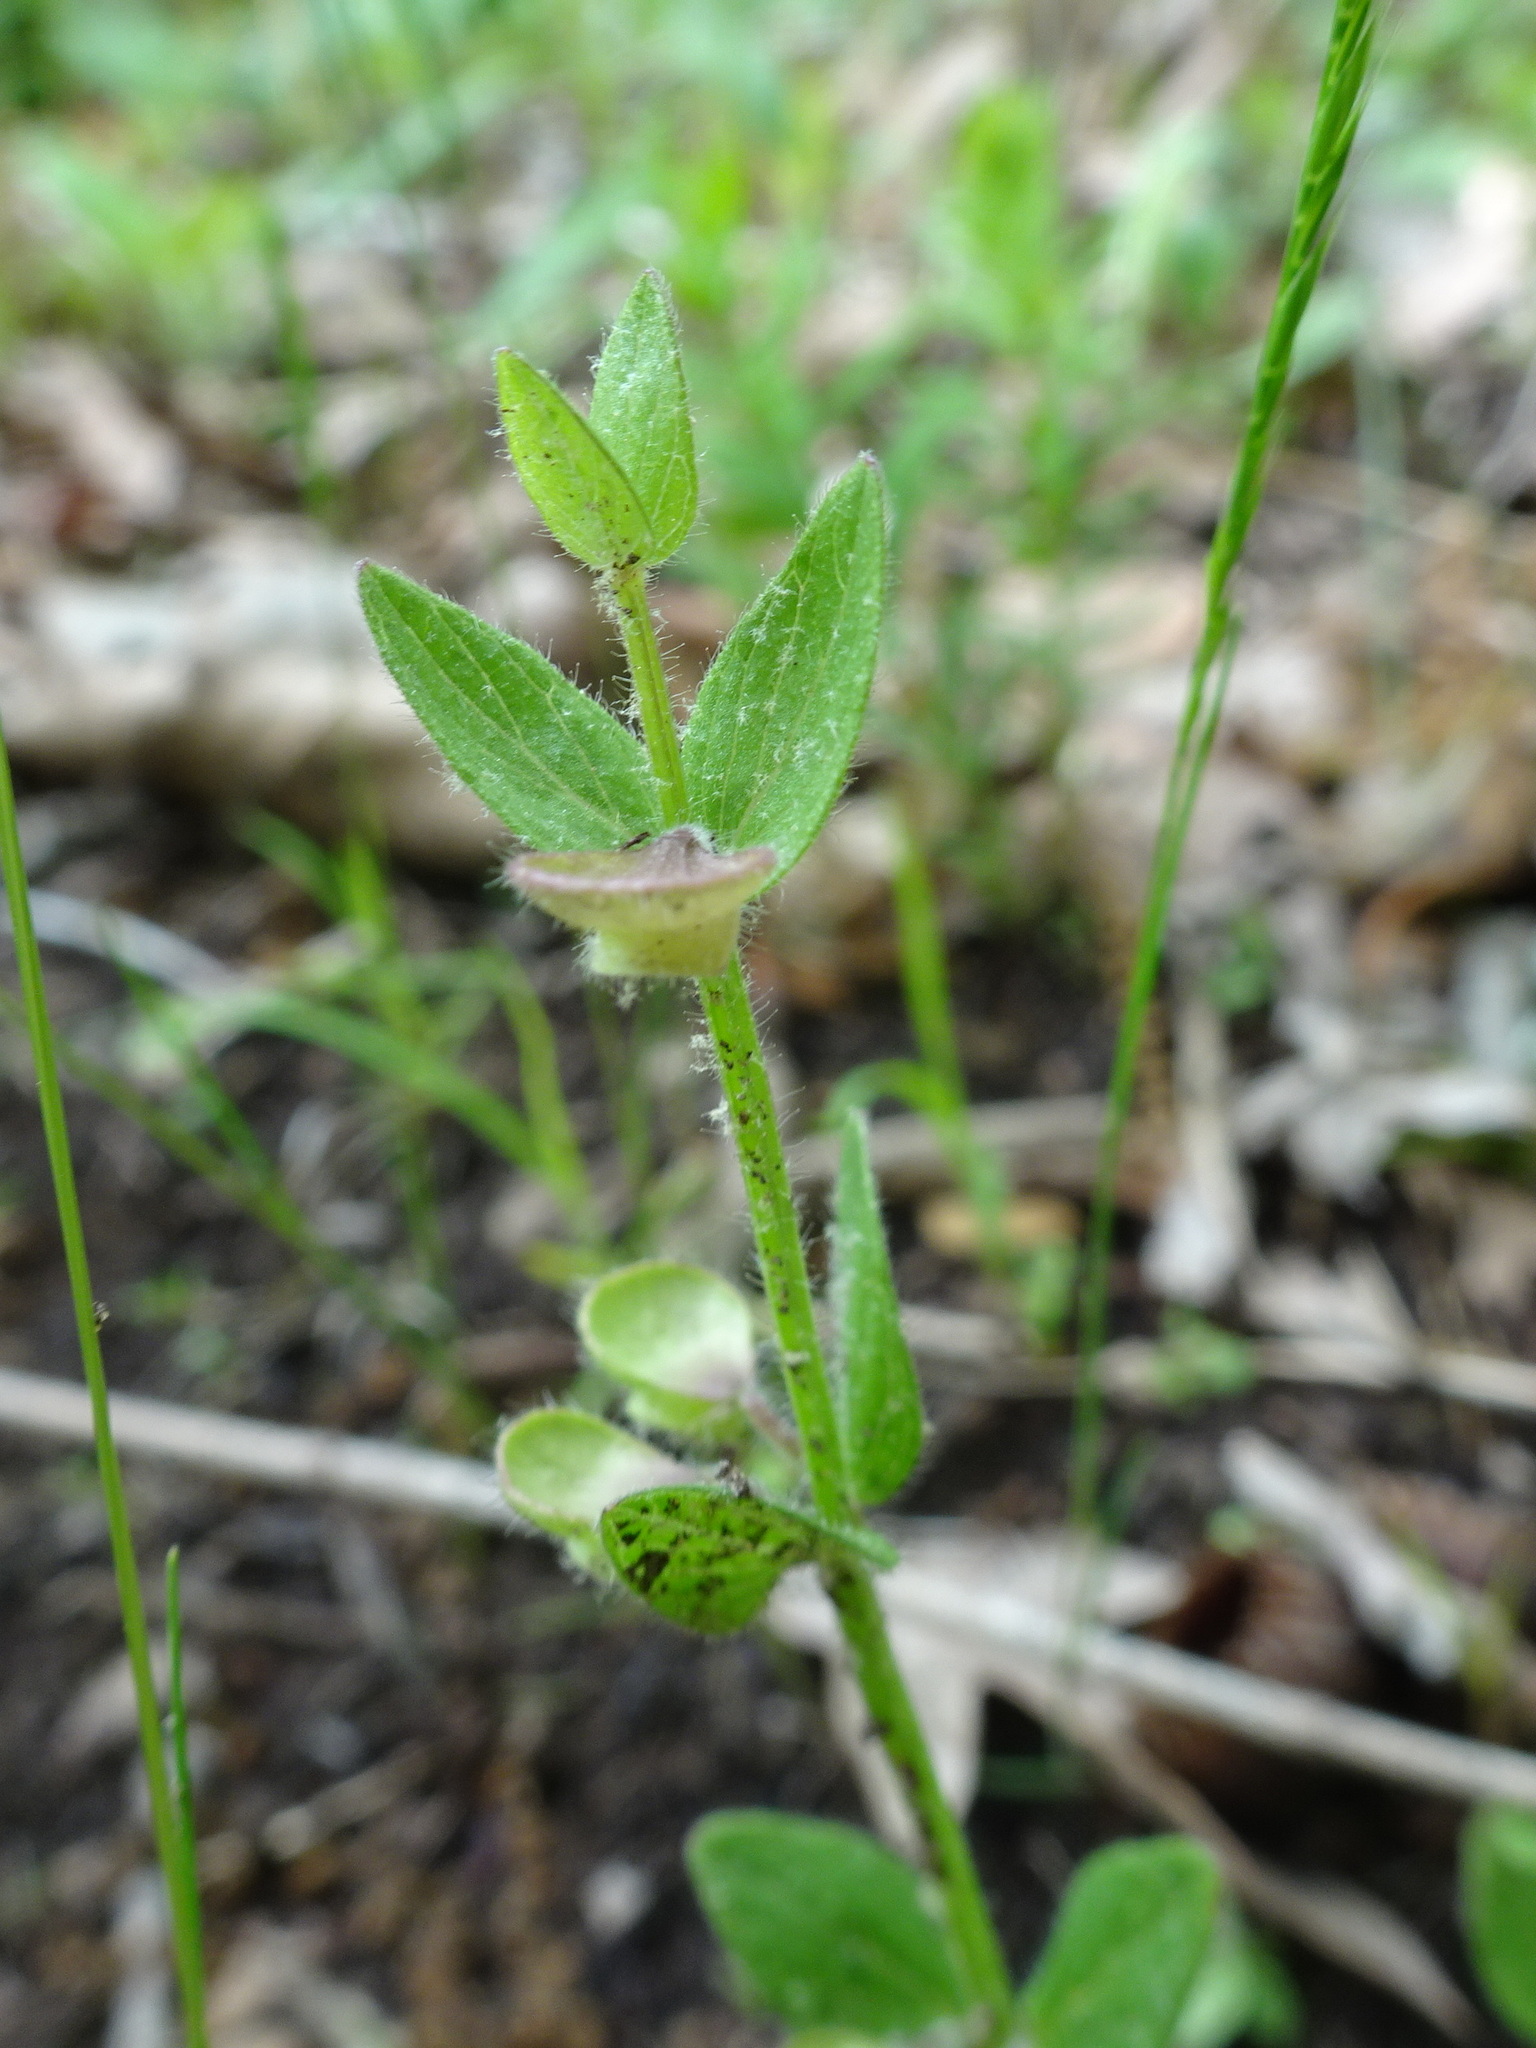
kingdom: Plantae
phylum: Tracheophyta
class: Magnoliopsida
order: Lamiales
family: Lamiaceae
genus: Scutellaria
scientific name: Scutellaria parvula
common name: Little scullcap
